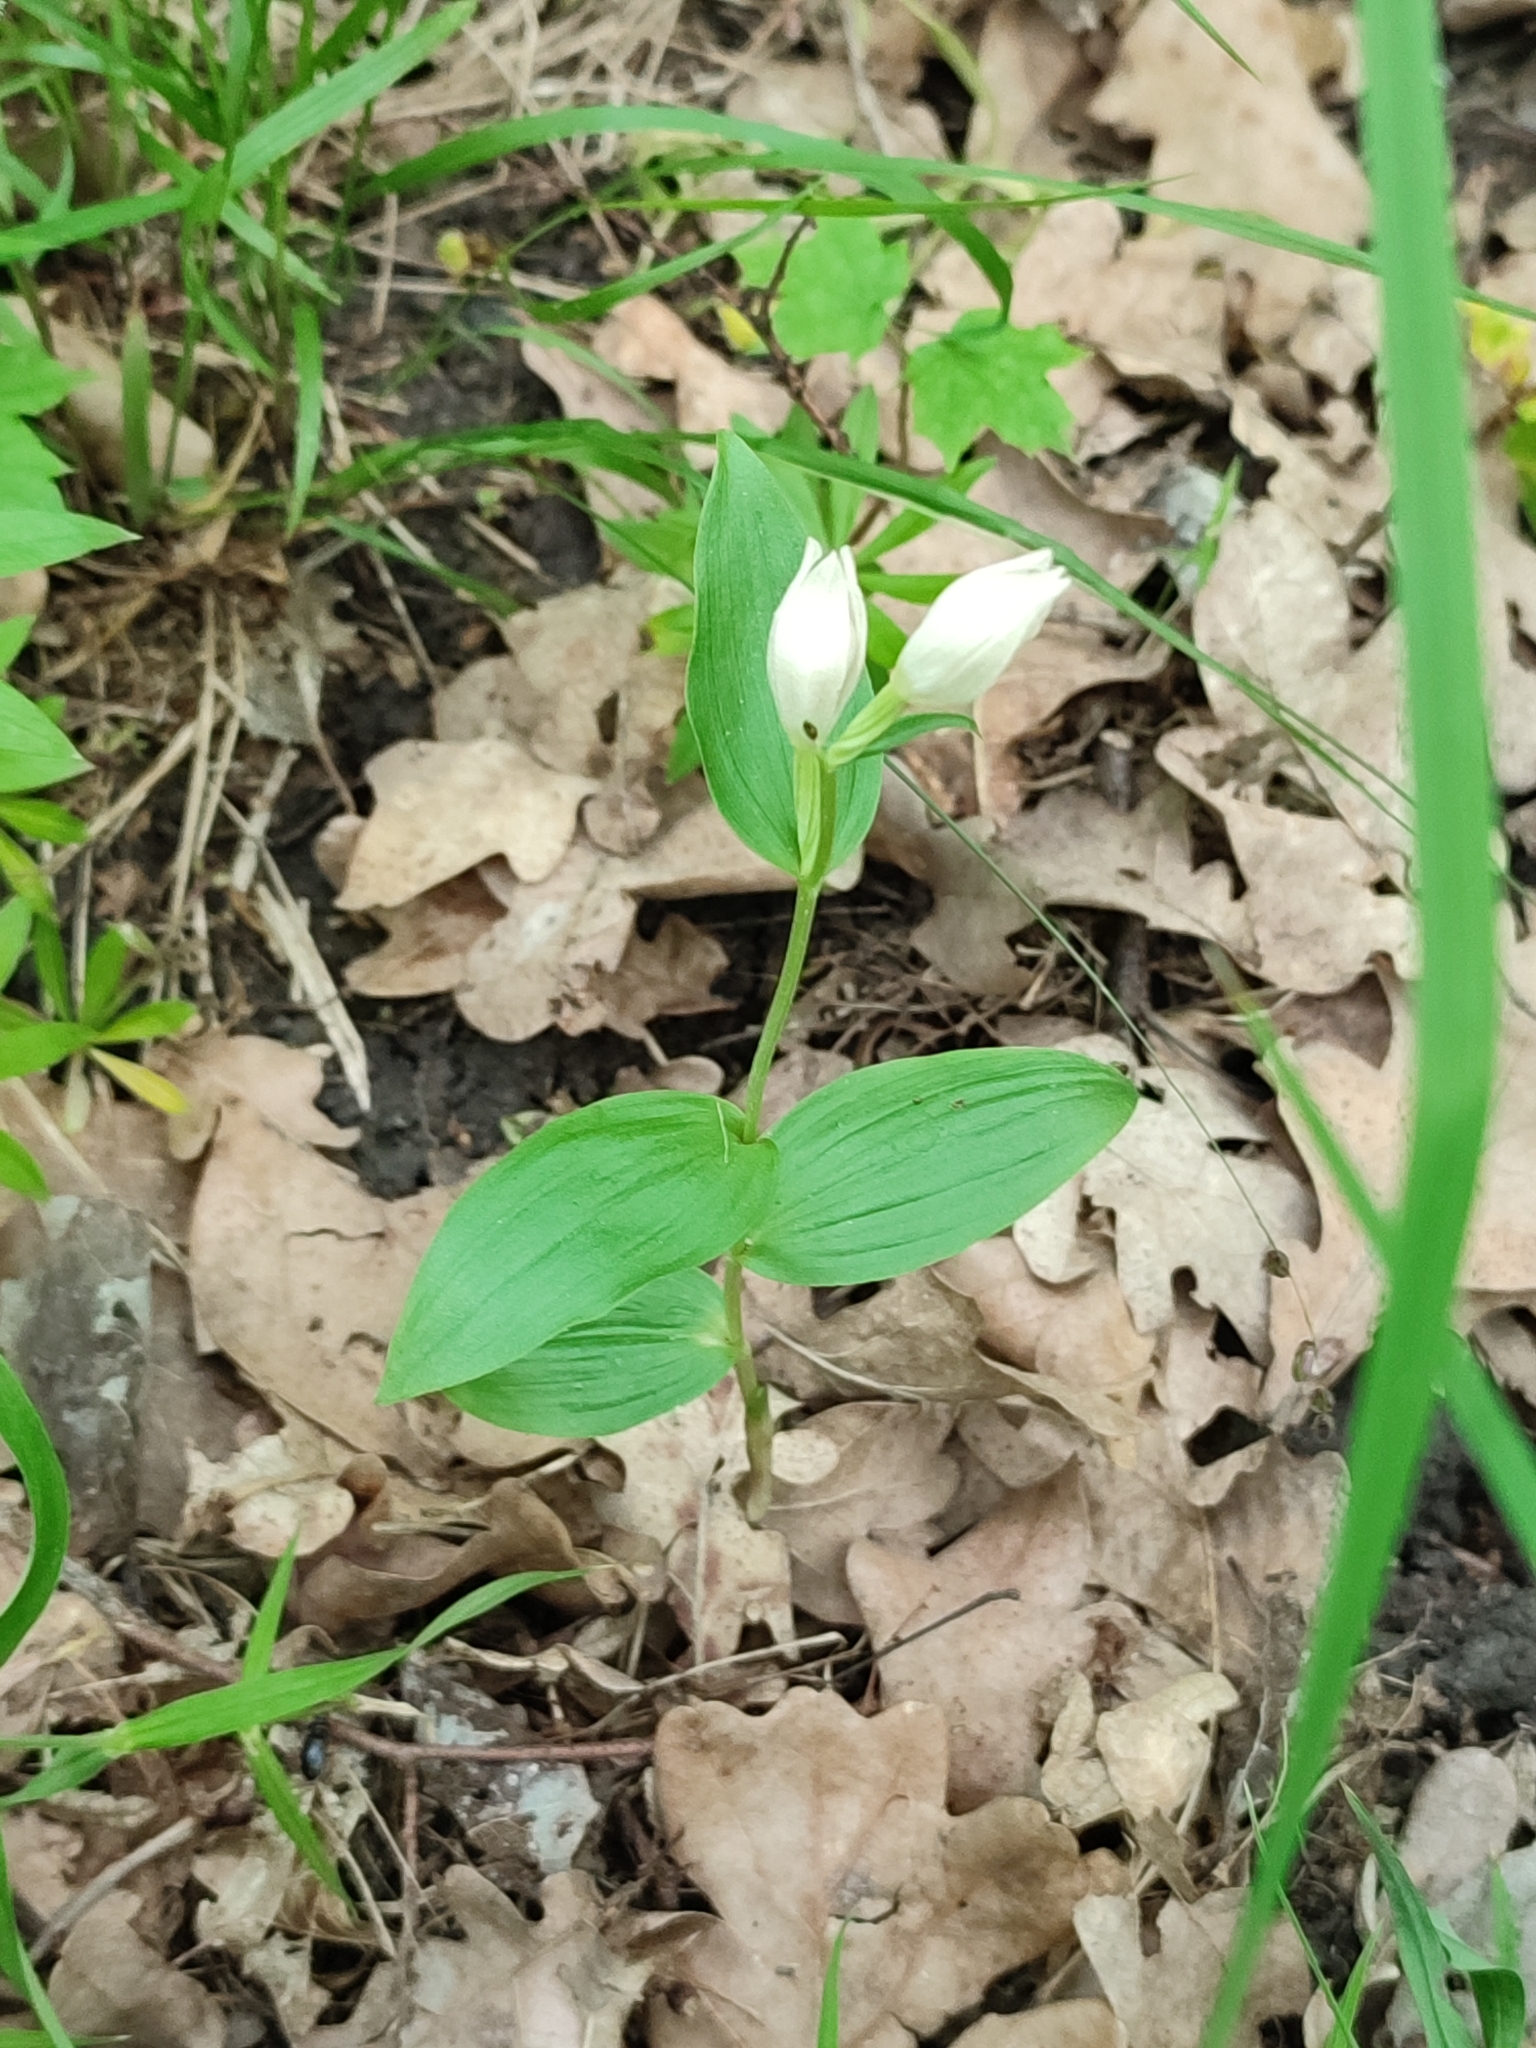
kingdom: Plantae
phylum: Tracheophyta
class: Liliopsida
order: Asparagales
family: Orchidaceae
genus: Cephalanthera
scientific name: Cephalanthera damasonium
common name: White helleborine
